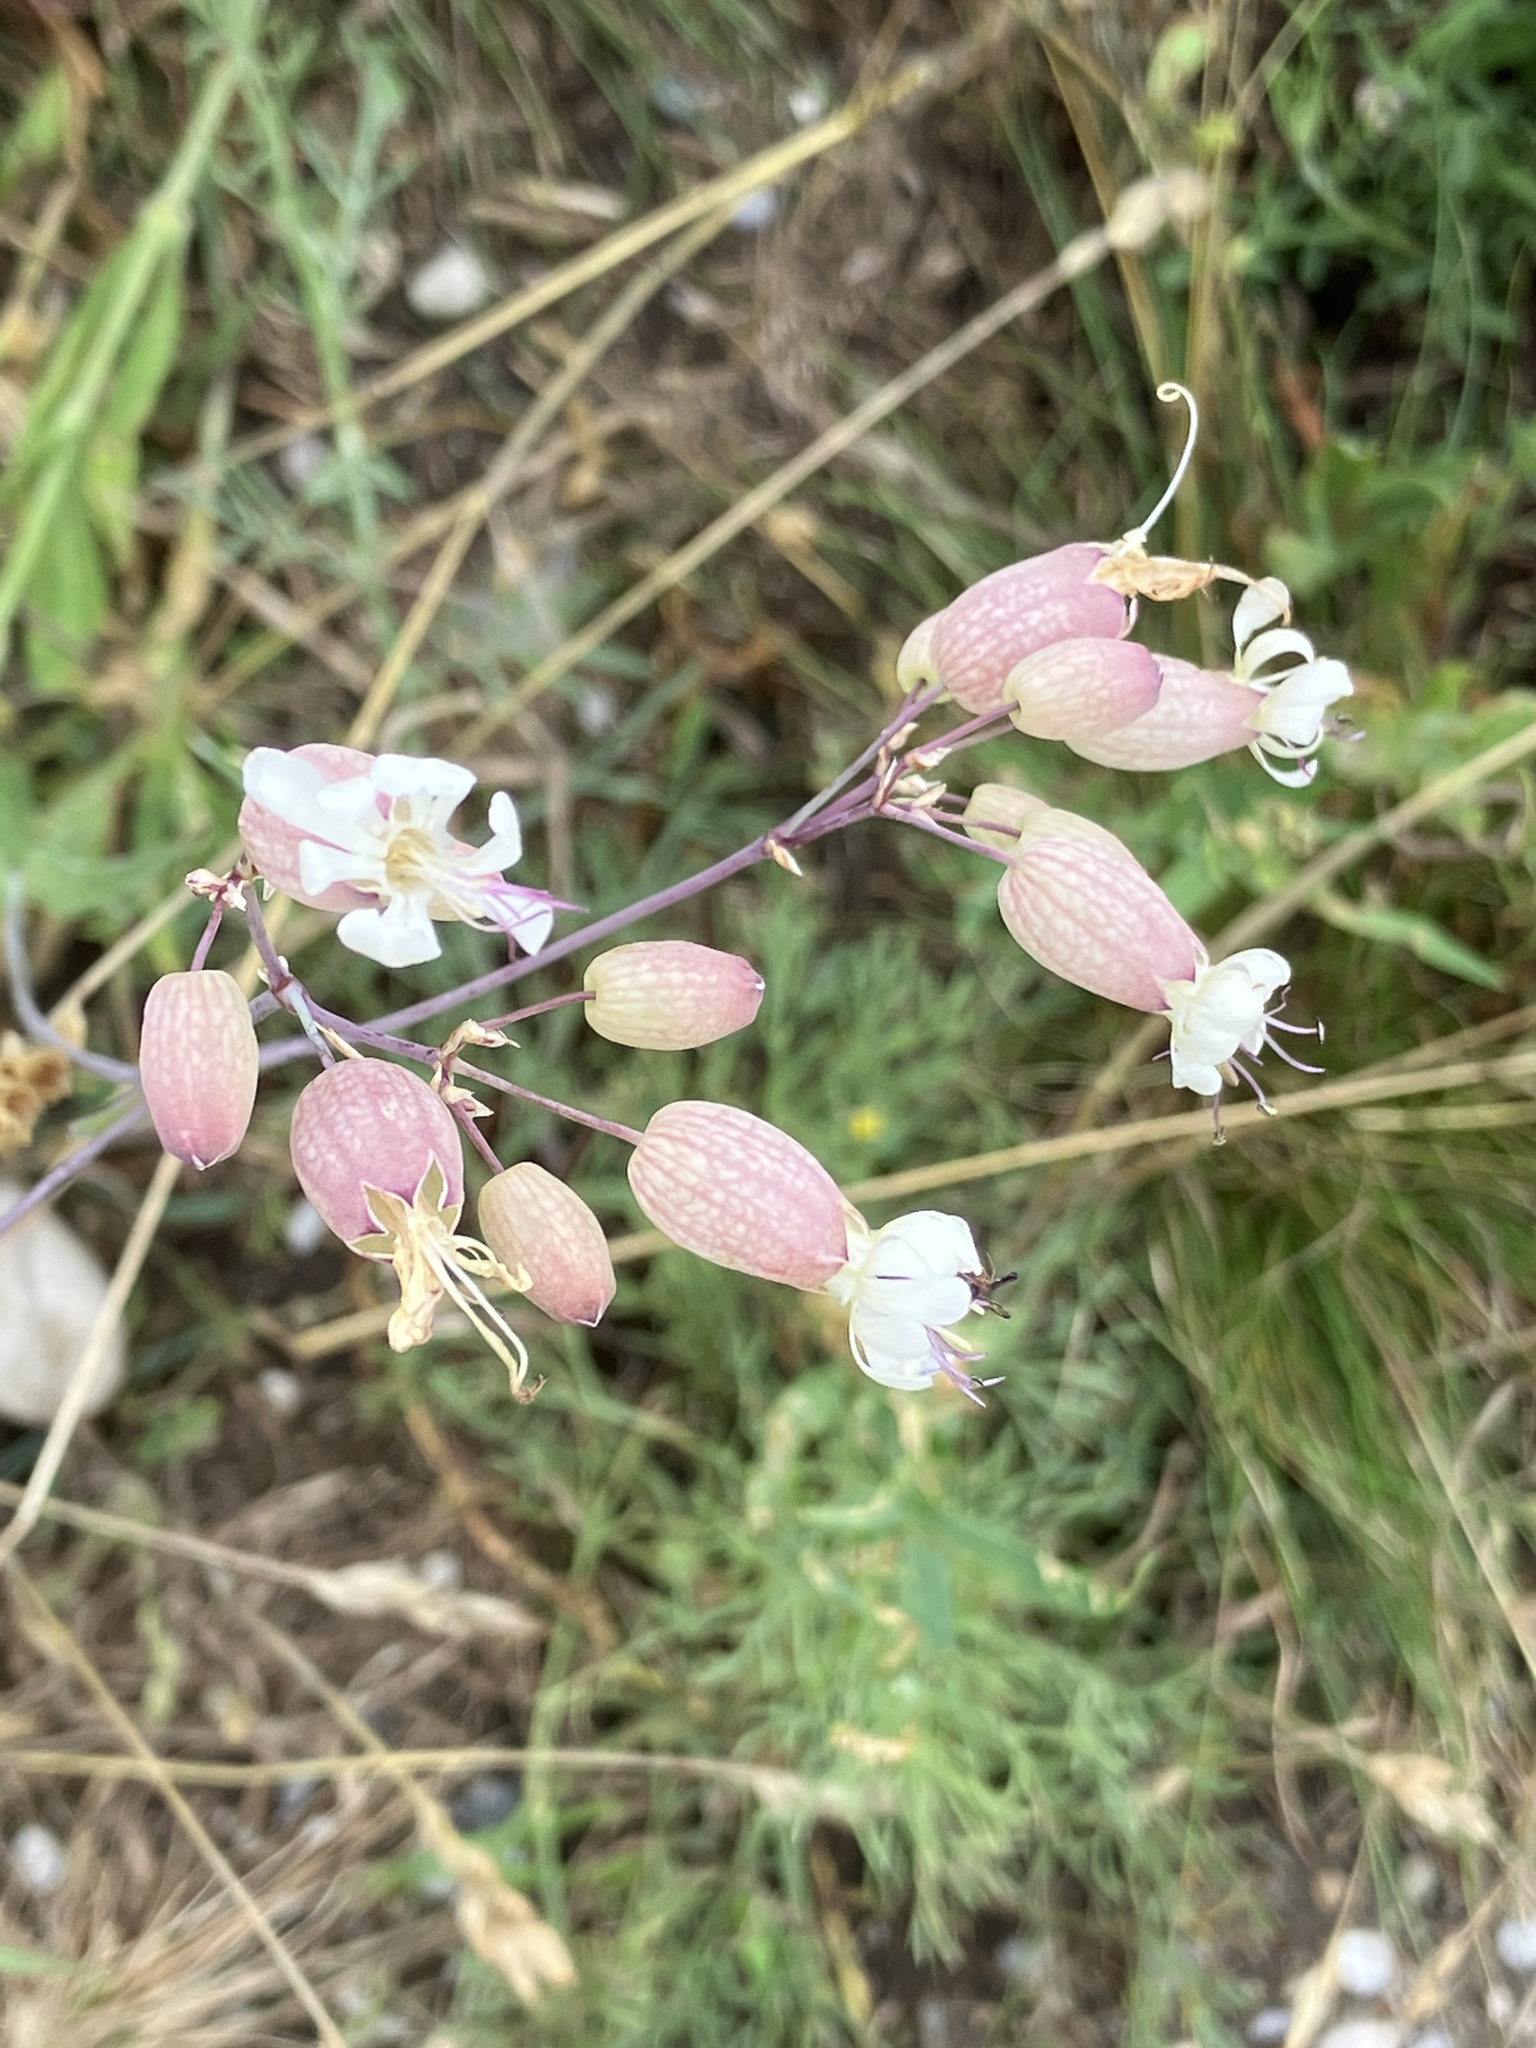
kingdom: Plantae
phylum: Tracheophyta
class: Magnoliopsida
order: Caryophyllales
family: Caryophyllaceae
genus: Silene
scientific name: Silene vulgaris
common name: Bladder campion
